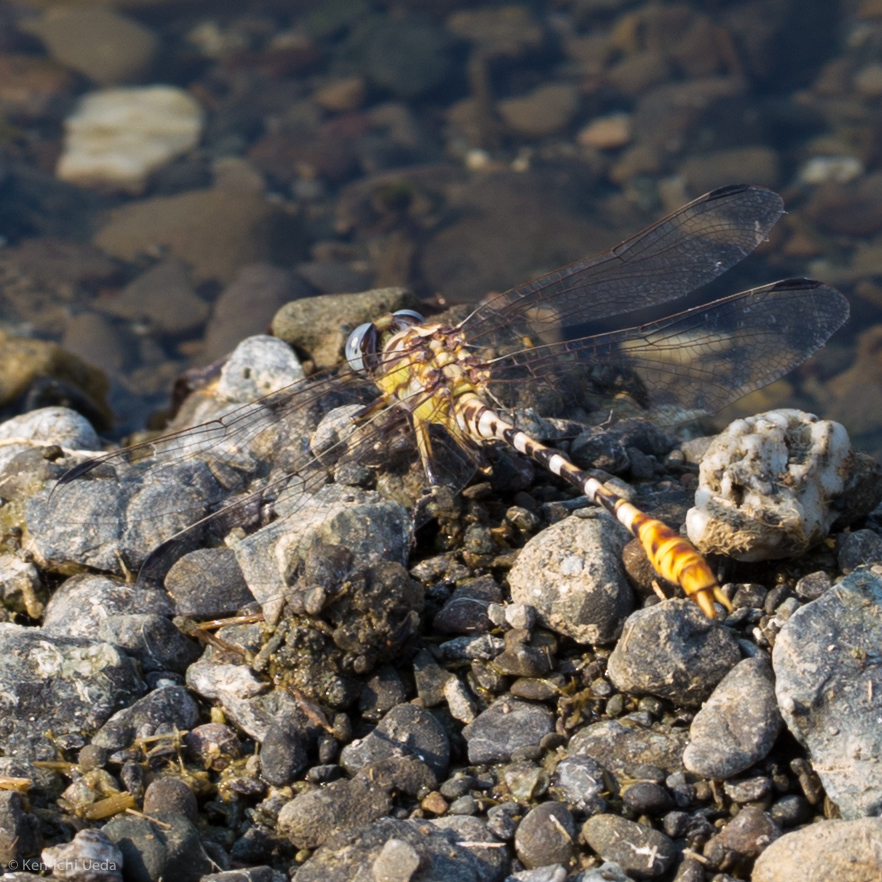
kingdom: Animalia
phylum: Arthropoda
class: Insecta
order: Odonata
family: Gomphidae
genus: Erpetogomphus
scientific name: Erpetogomphus compositus
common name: White-belted ringtail
